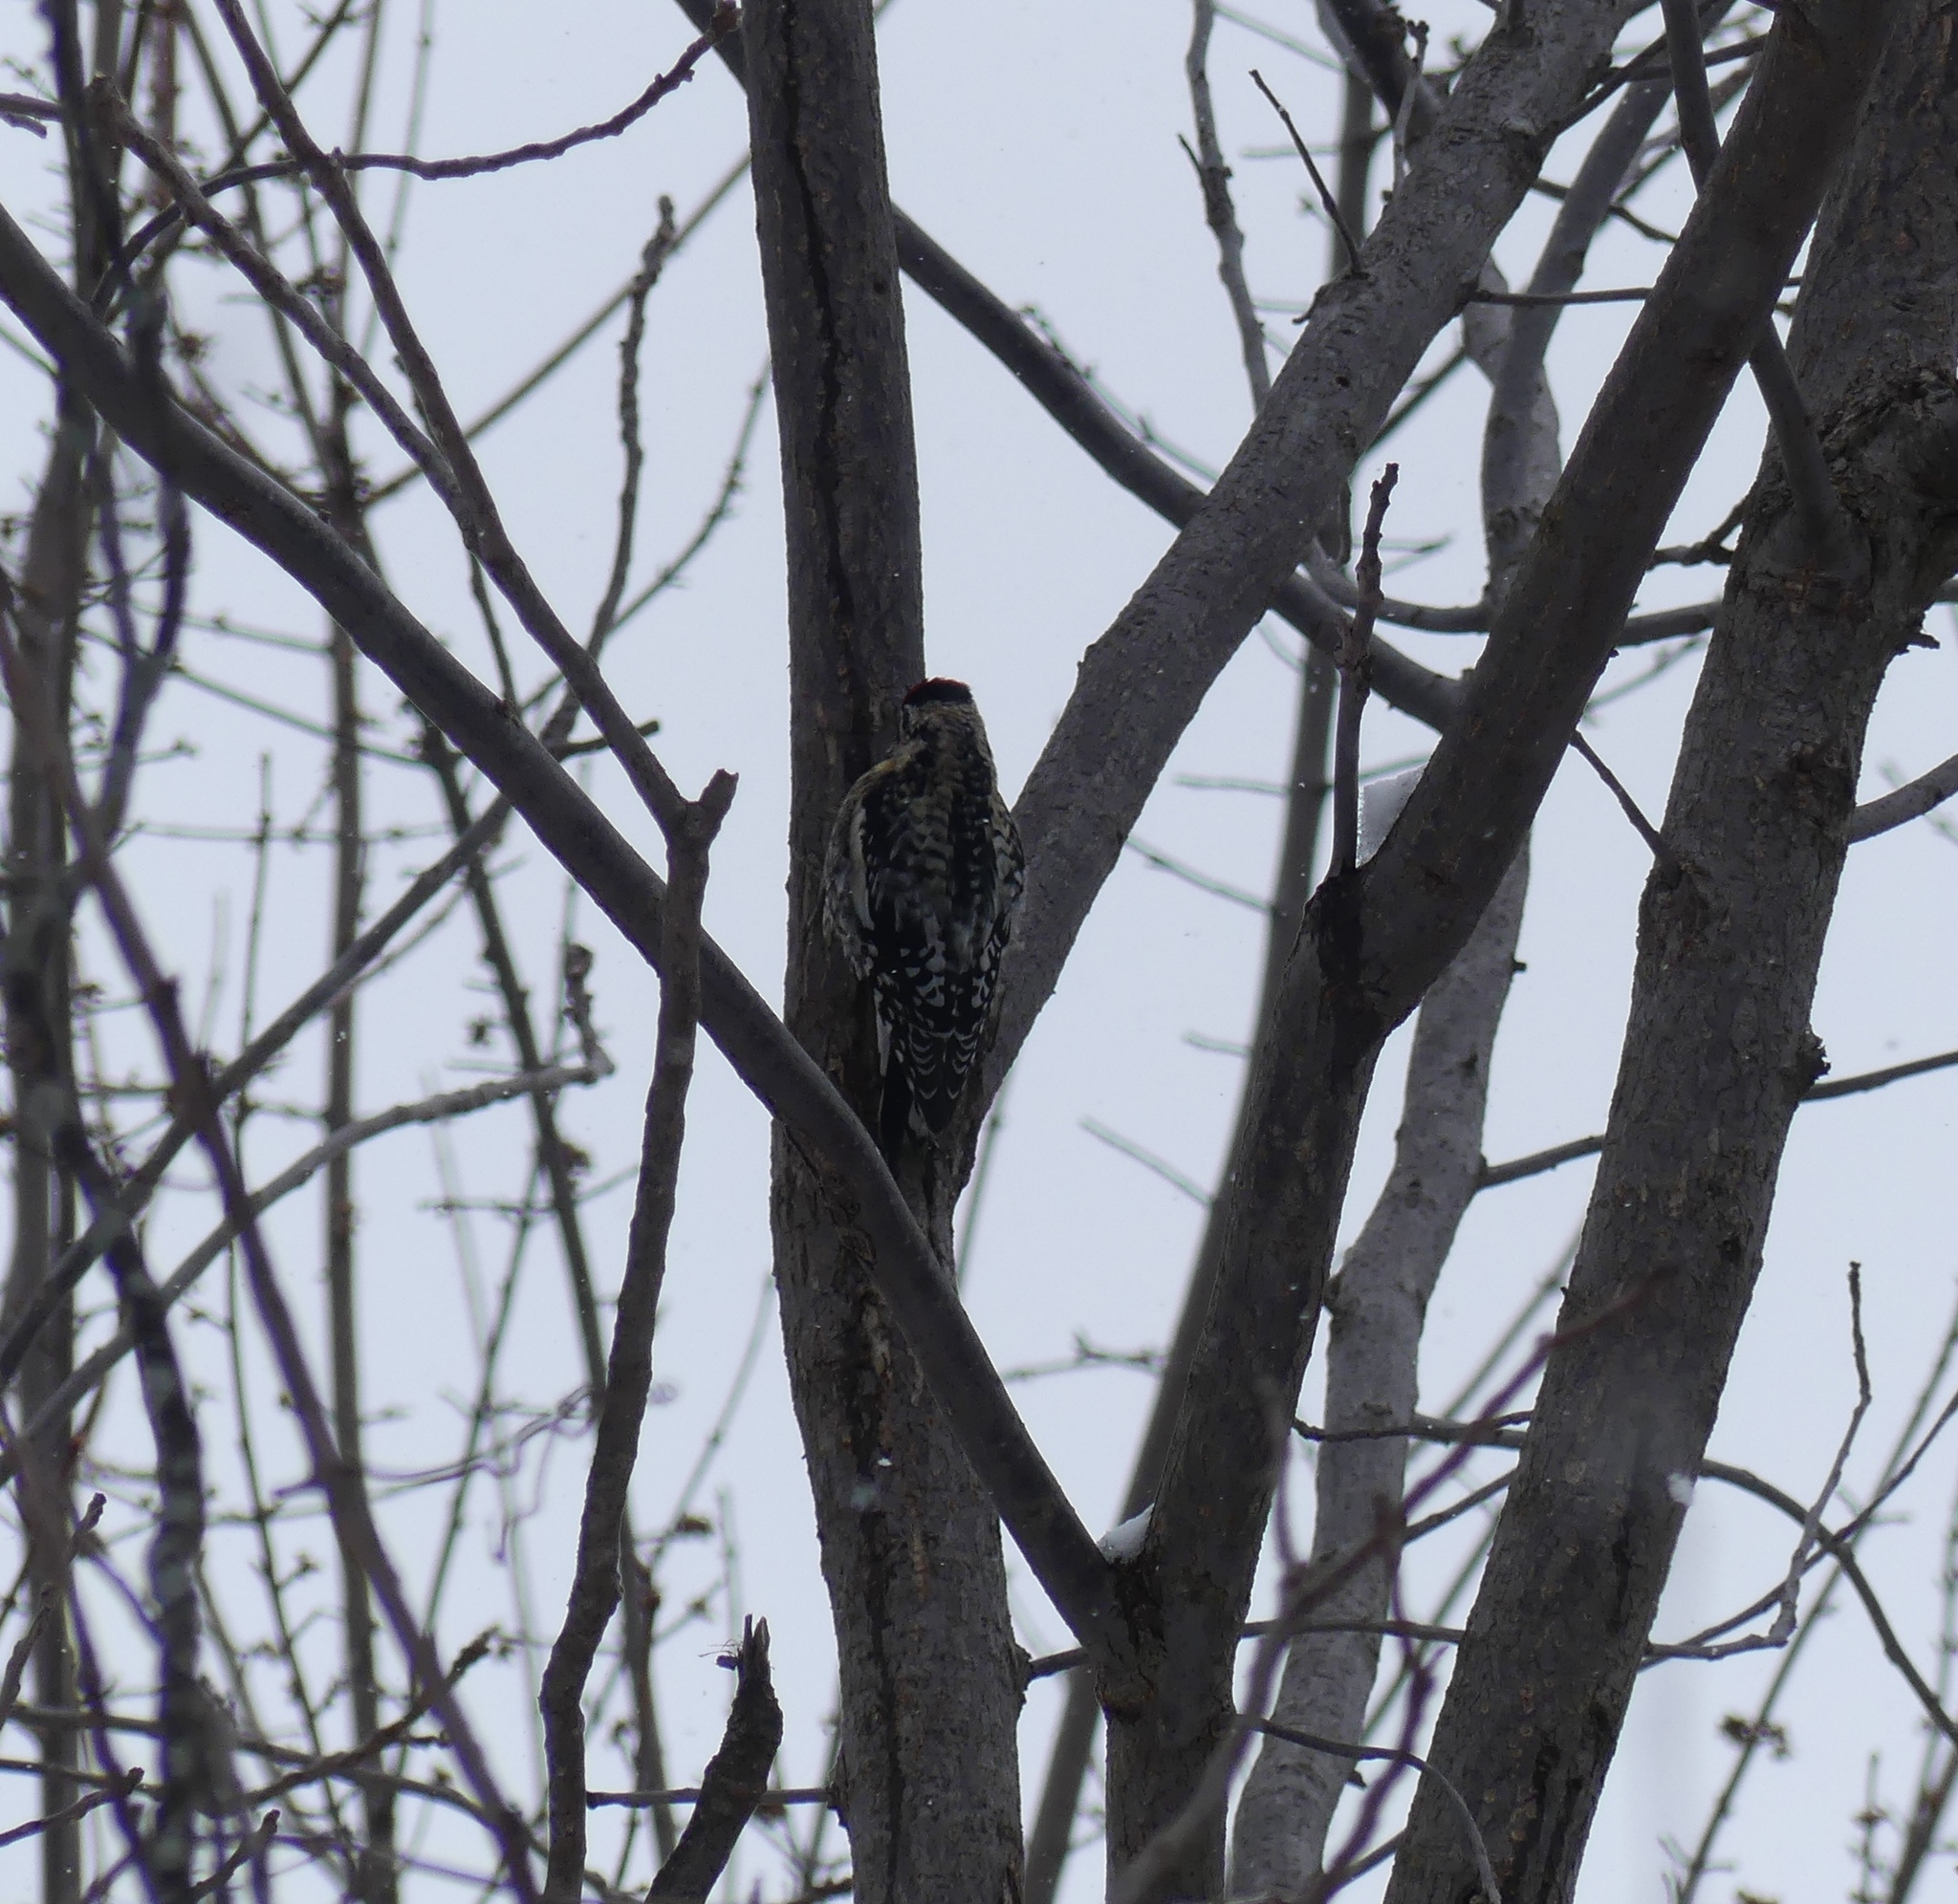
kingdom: Animalia
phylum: Chordata
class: Aves
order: Piciformes
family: Picidae
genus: Sphyrapicus
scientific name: Sphyrapicus varius
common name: Yellow-bellied sapsucker
